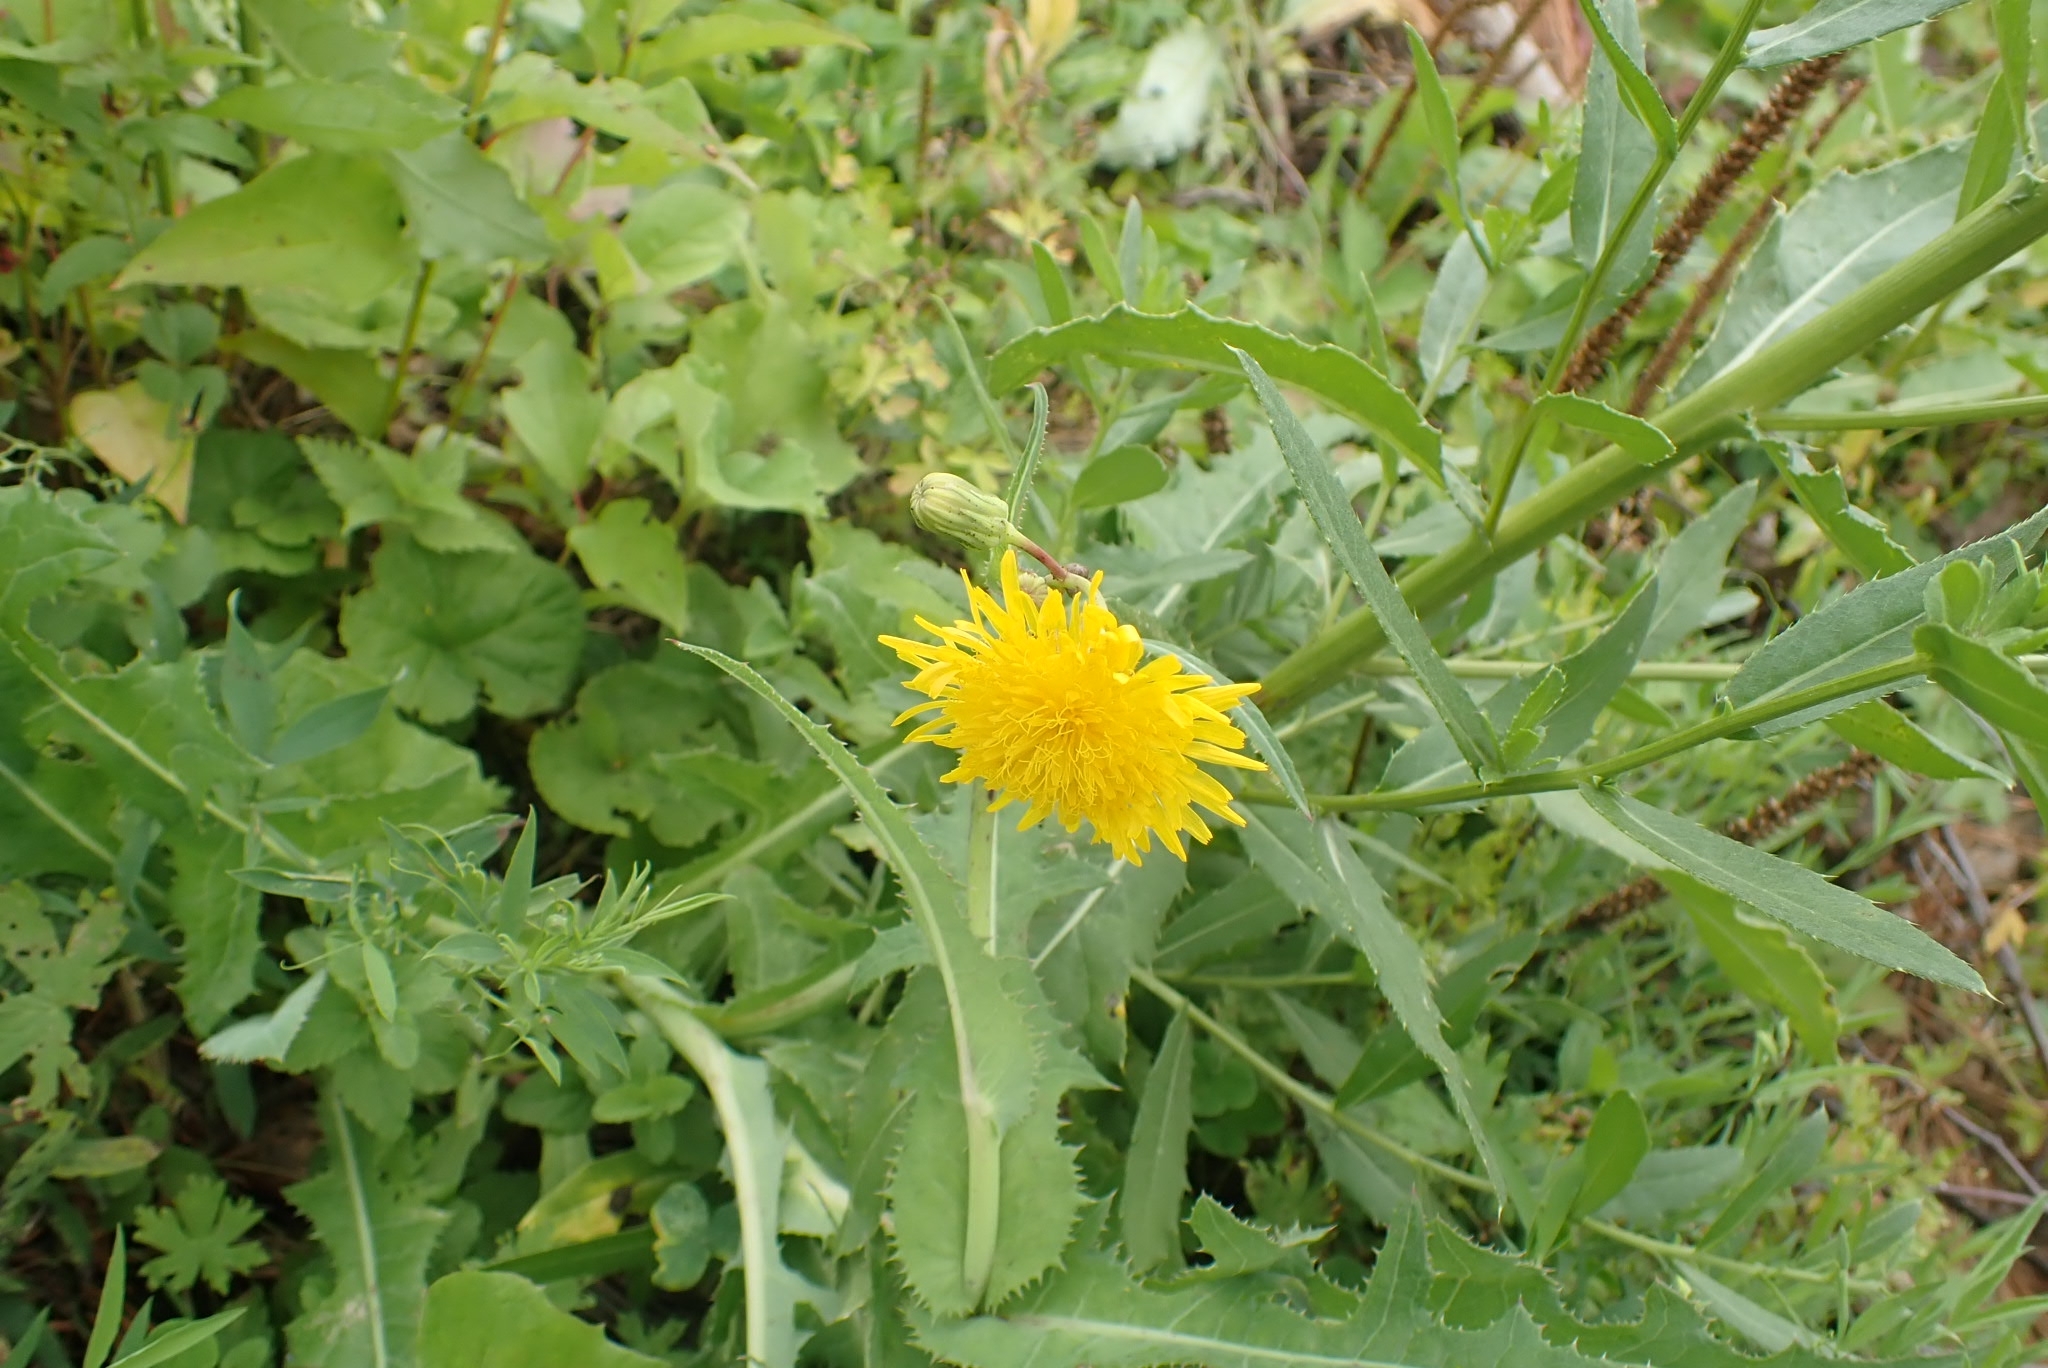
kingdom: Plantae
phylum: Tracheophyta
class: Magnoliopsida
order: Asterales
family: Asteraceae
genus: Sonchus
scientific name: Sonchus arvensis
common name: Perennial sow-thistle
